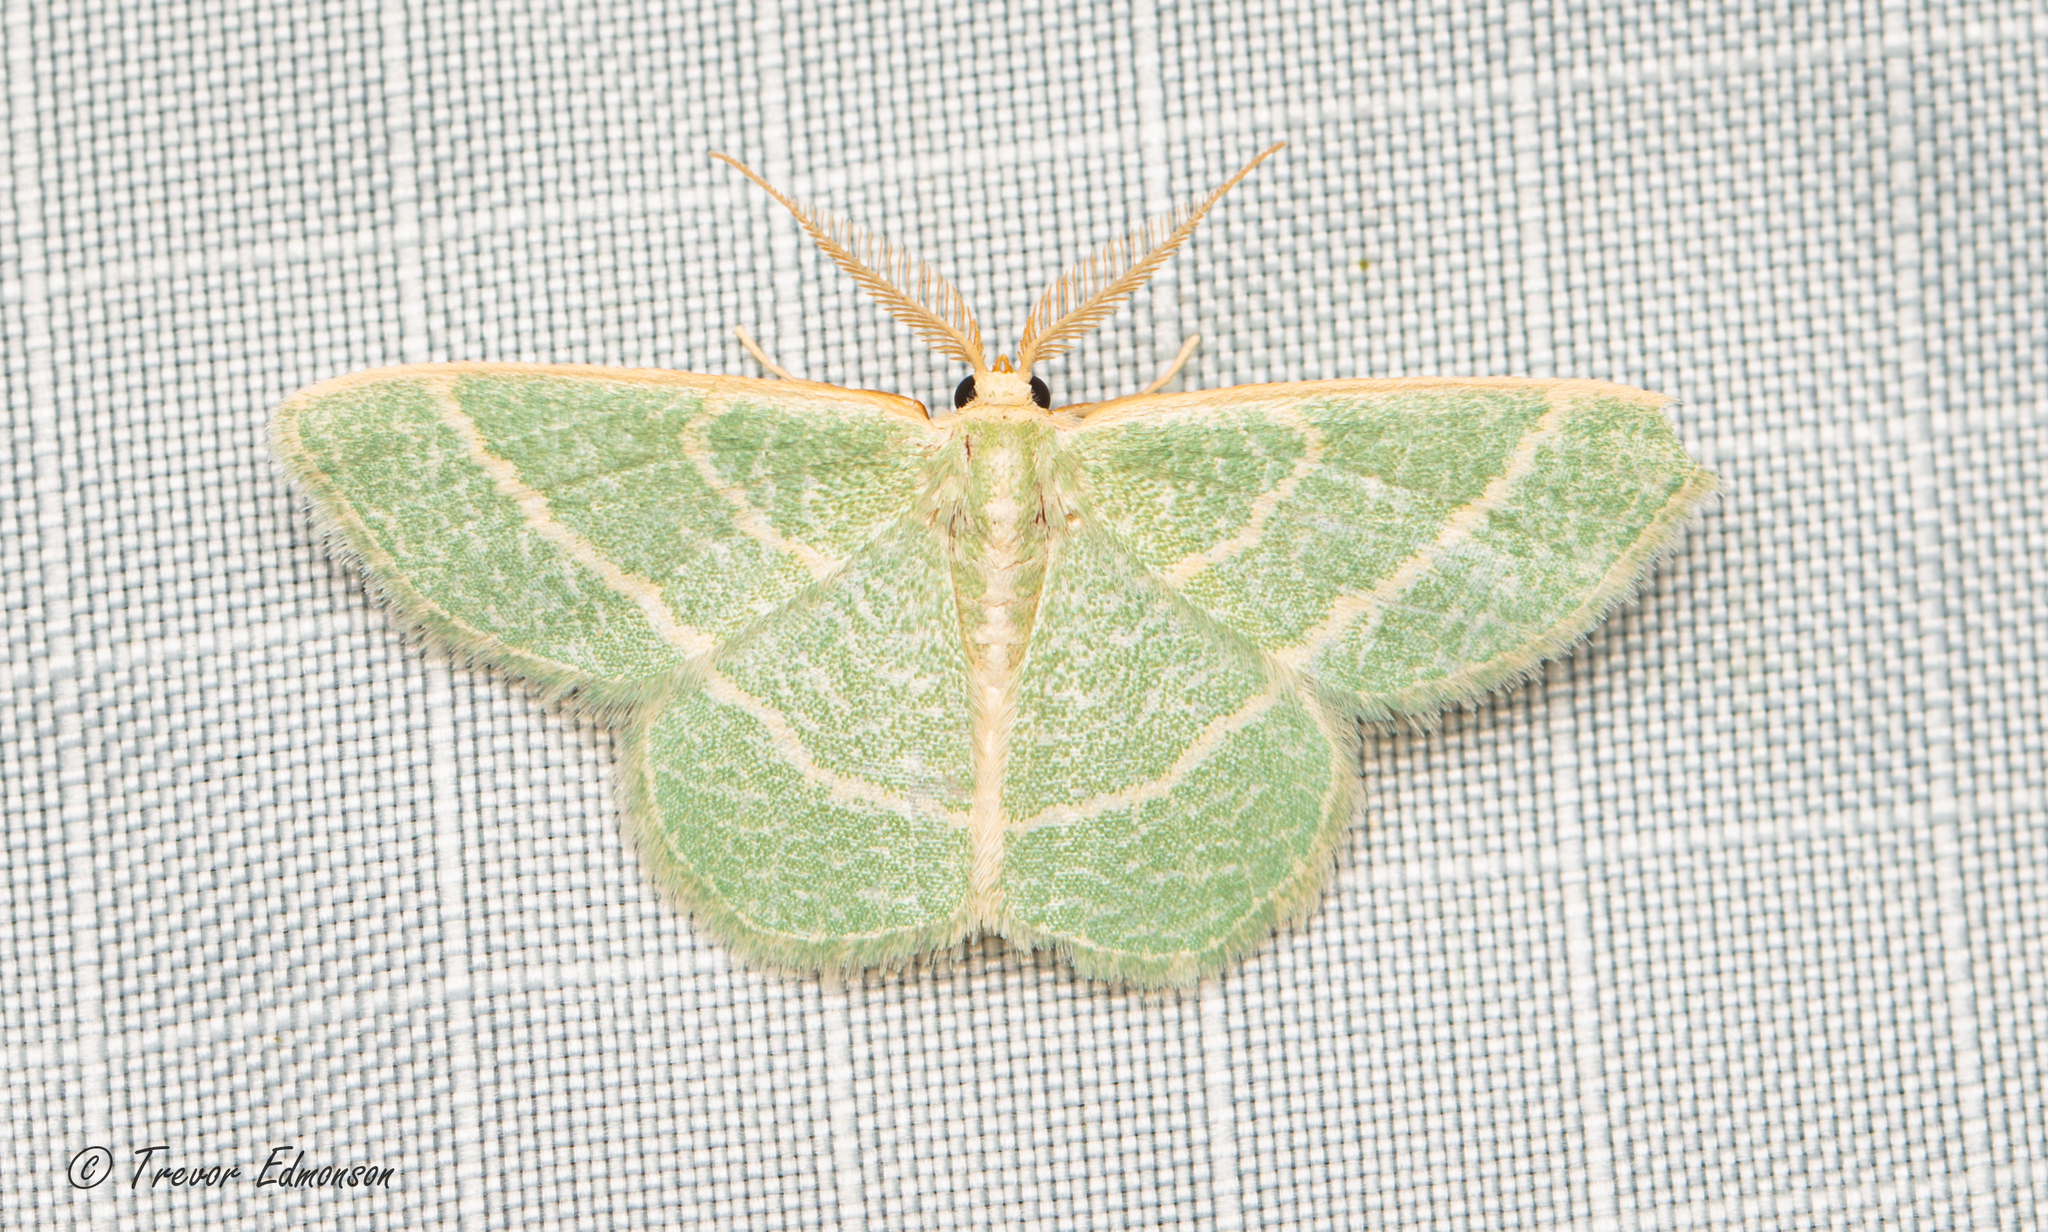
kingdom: Animalia
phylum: Arthropoda
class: Insecta
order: Lepidoptera
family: Geometridae
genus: Chlorochlamys
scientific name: Chlorochlamys chloroleucaria
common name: Blackberry looper
